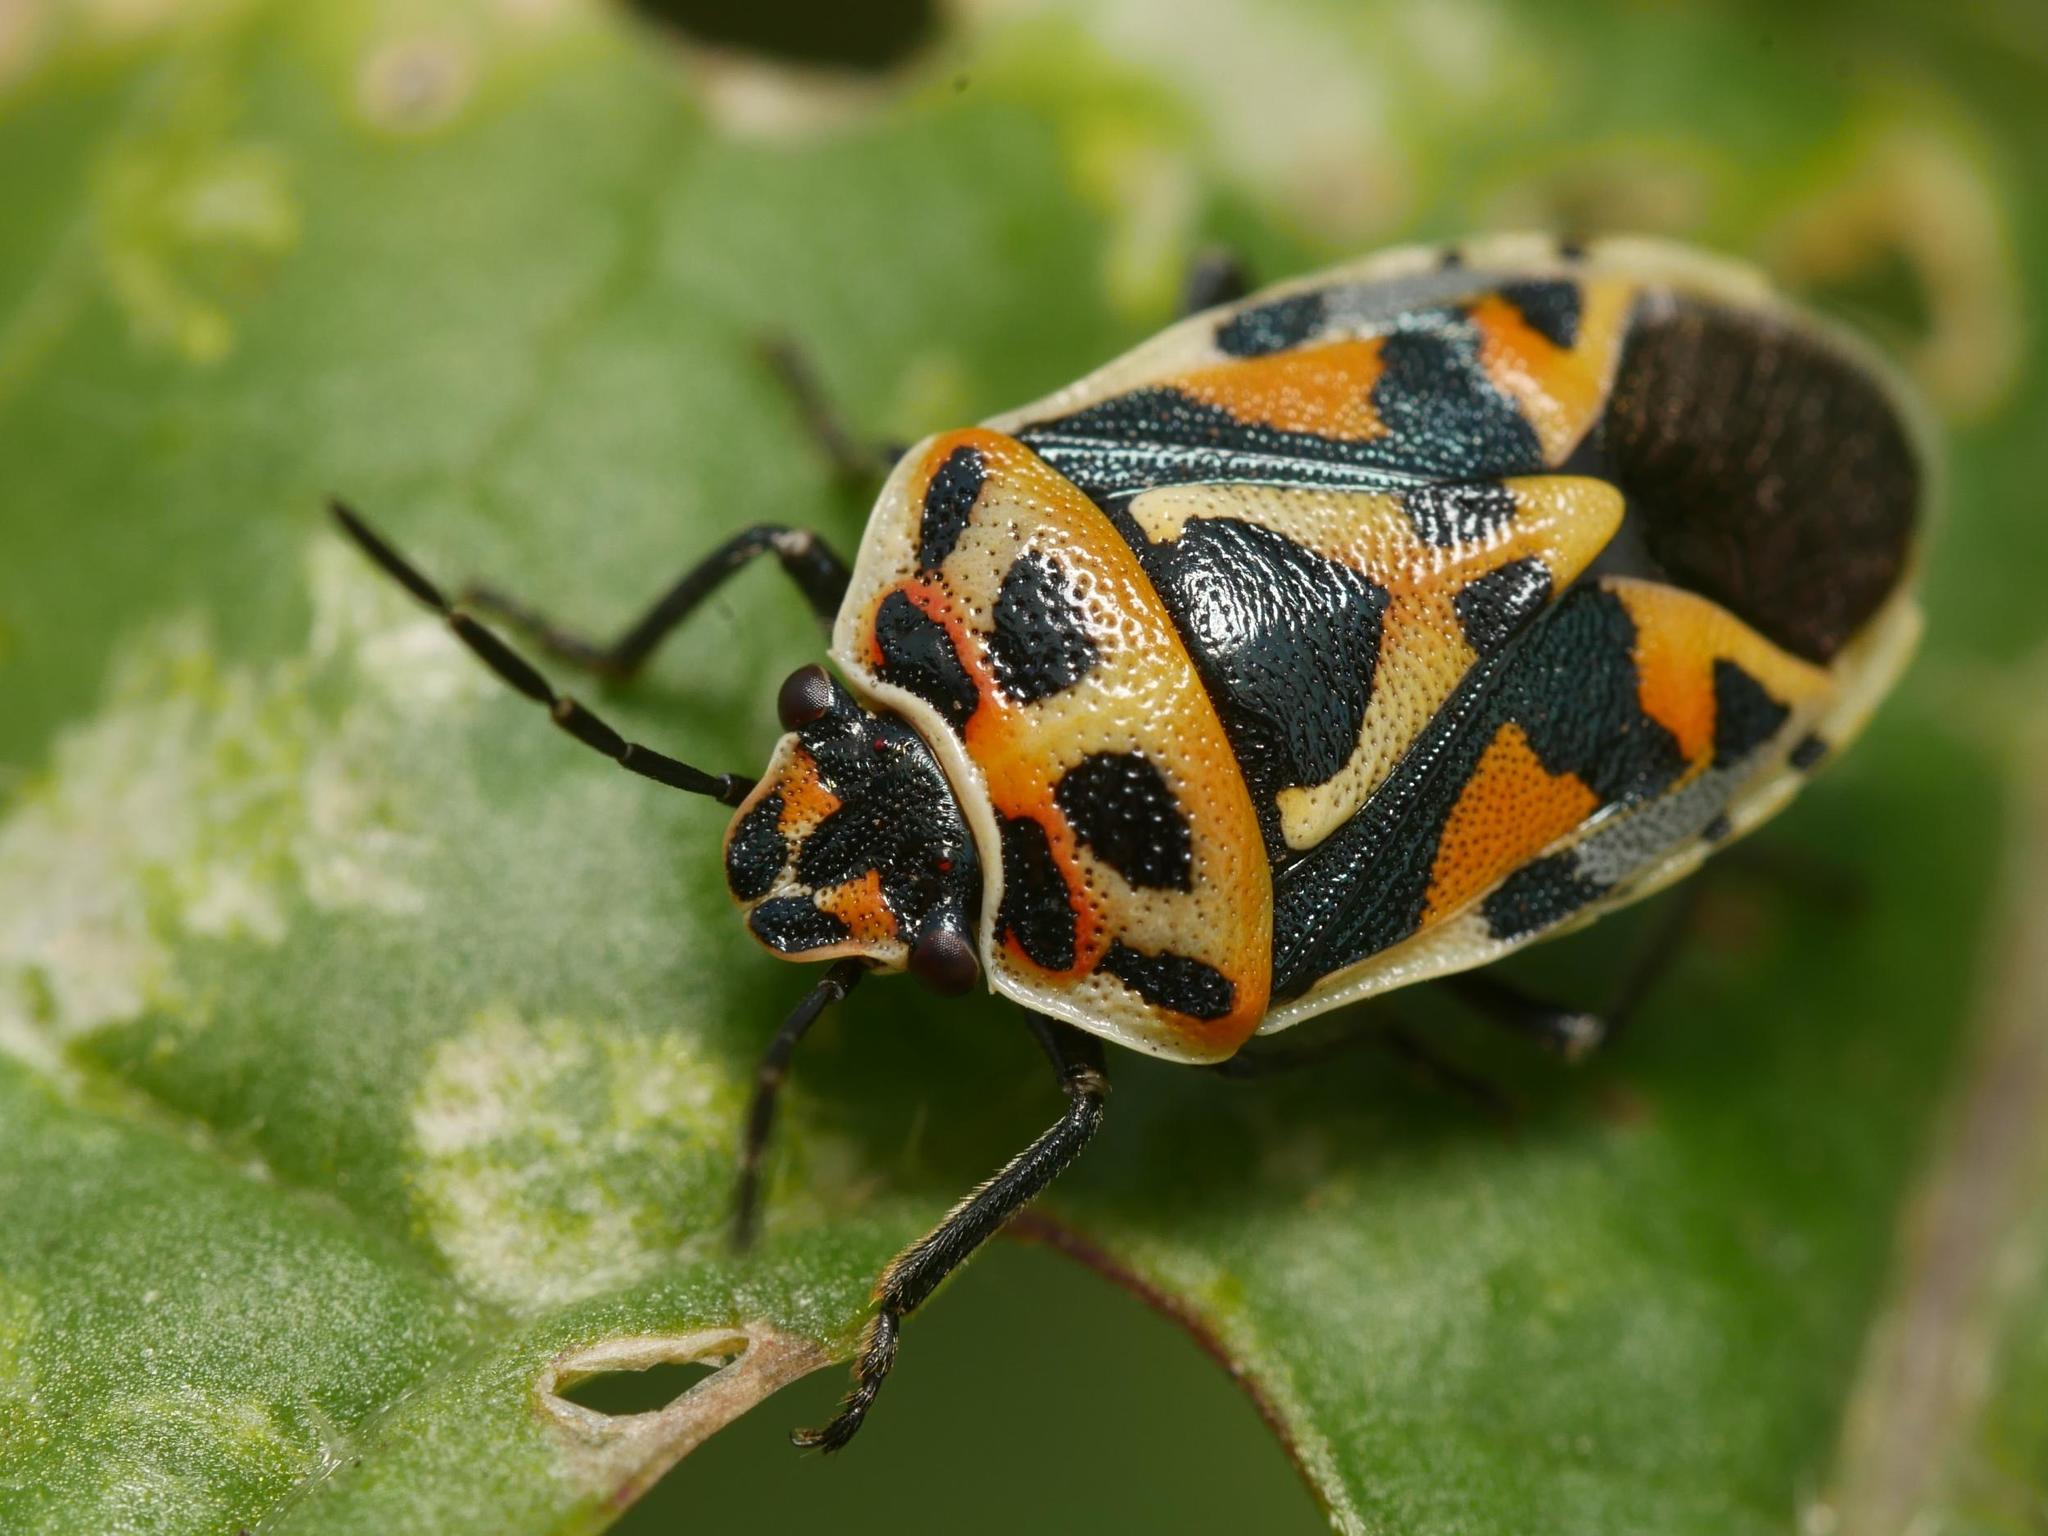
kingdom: Animalia
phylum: Arthropoda
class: Insecta
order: Hemiptera
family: Pentatomidae
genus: Eurydema
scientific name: Eurydema ornata
